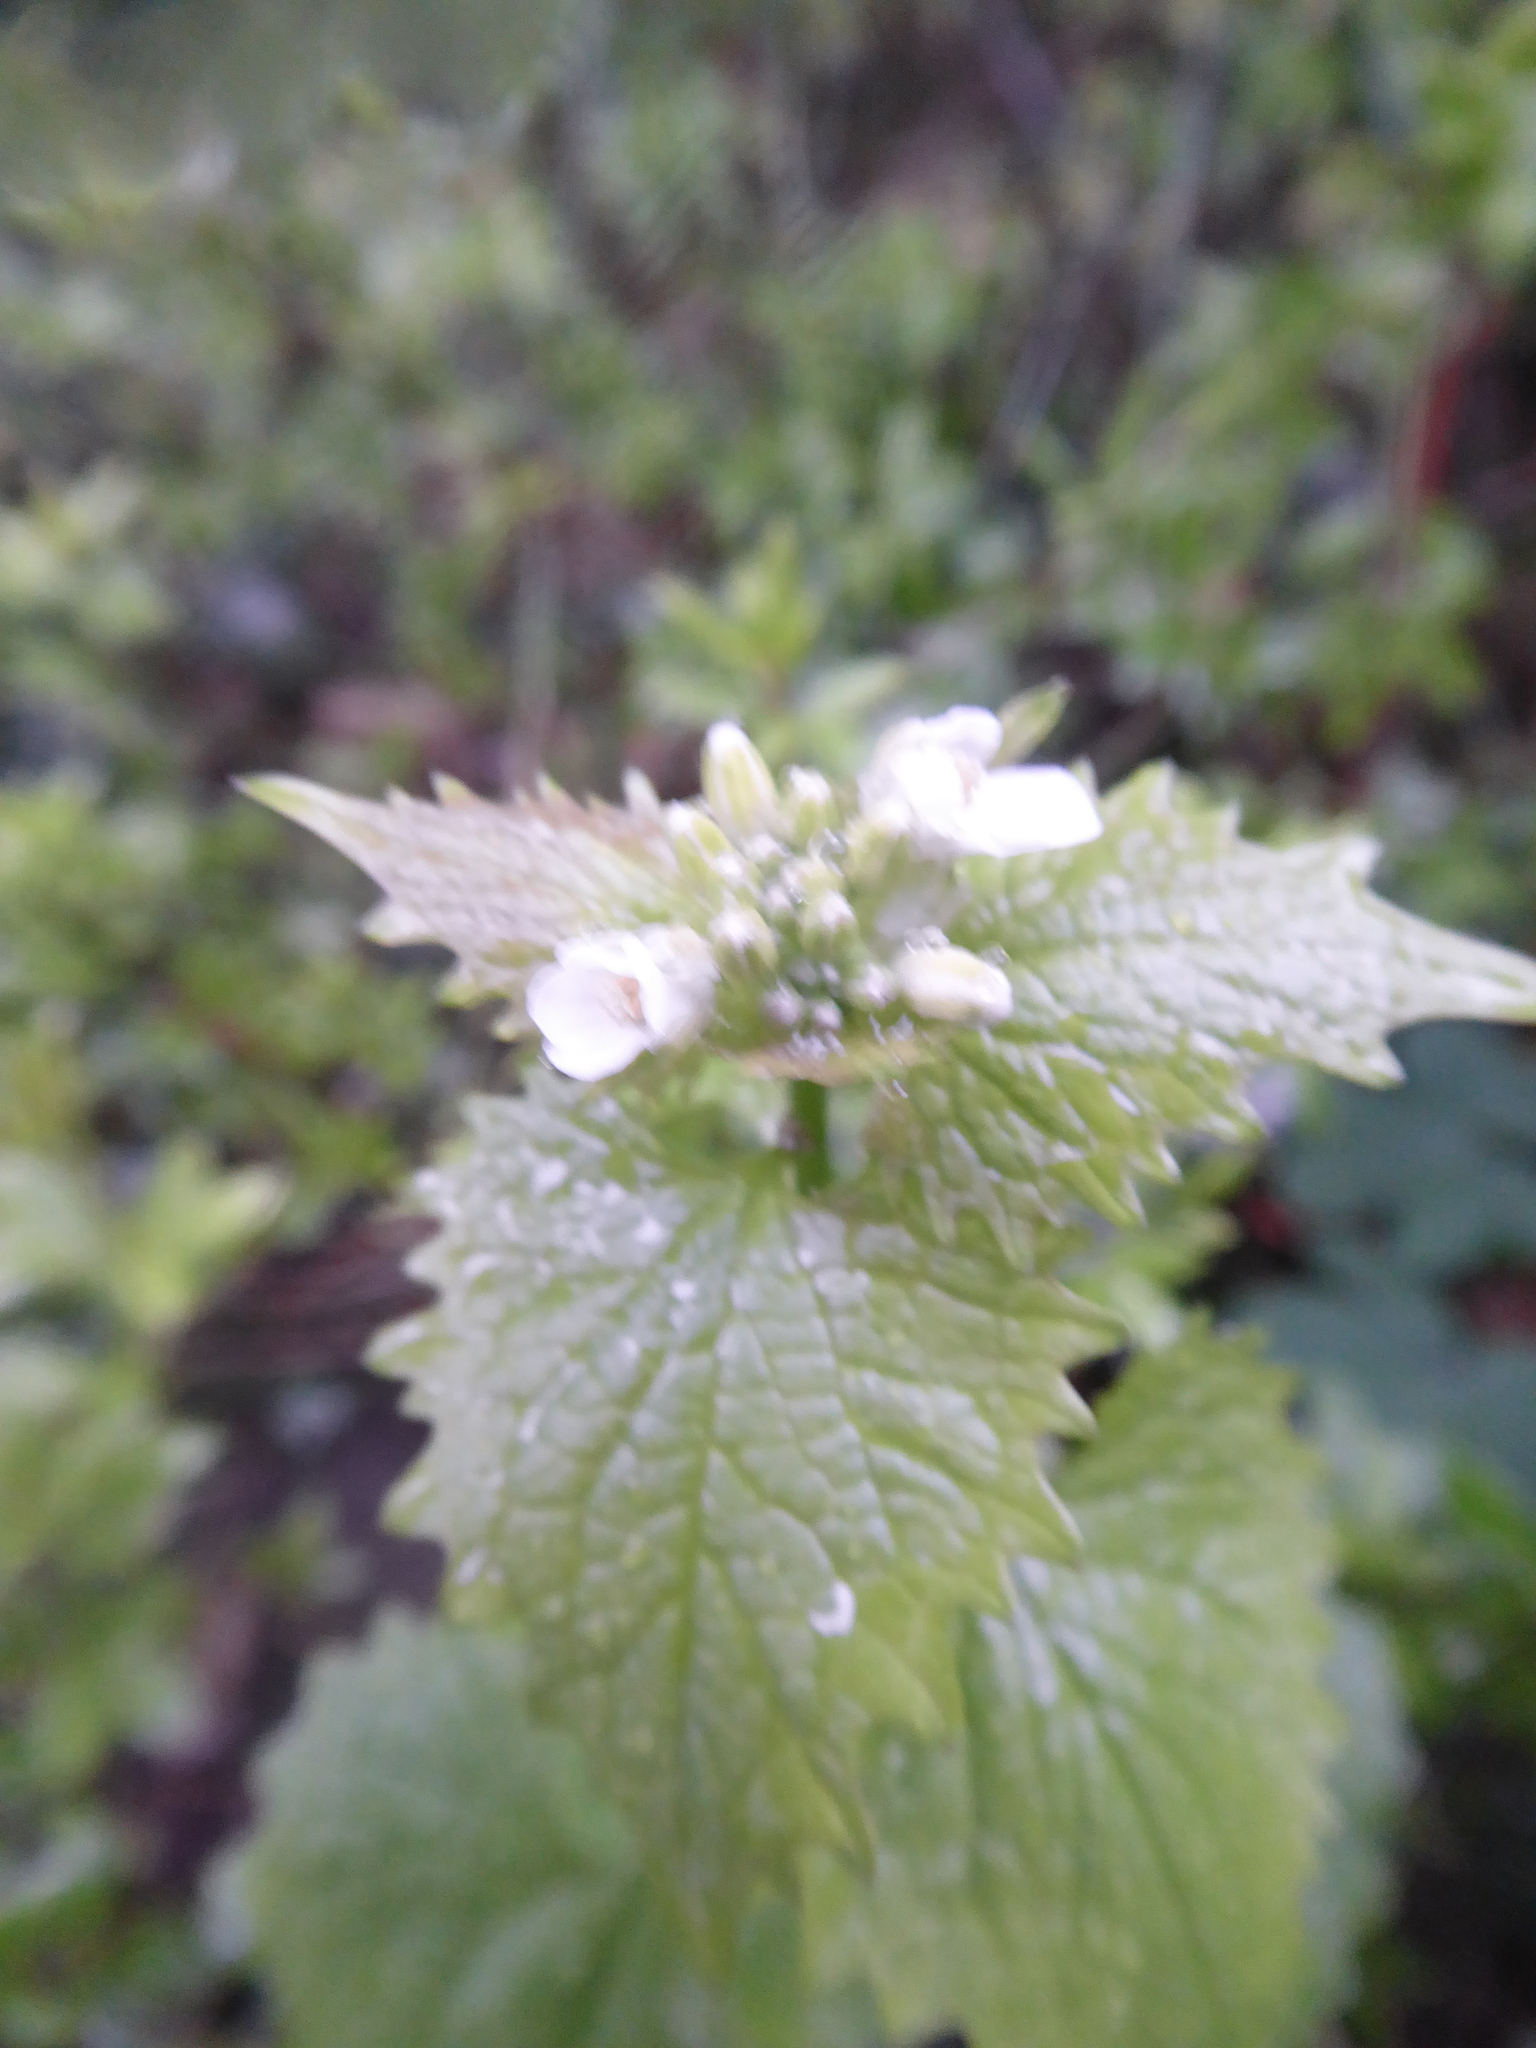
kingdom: Plantae
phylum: Tracheophyta
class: Magnoliopsida
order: Brassicales
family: Brassicaceae
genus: Alliaria
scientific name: Alliaria petiolata
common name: Garlic mustard
